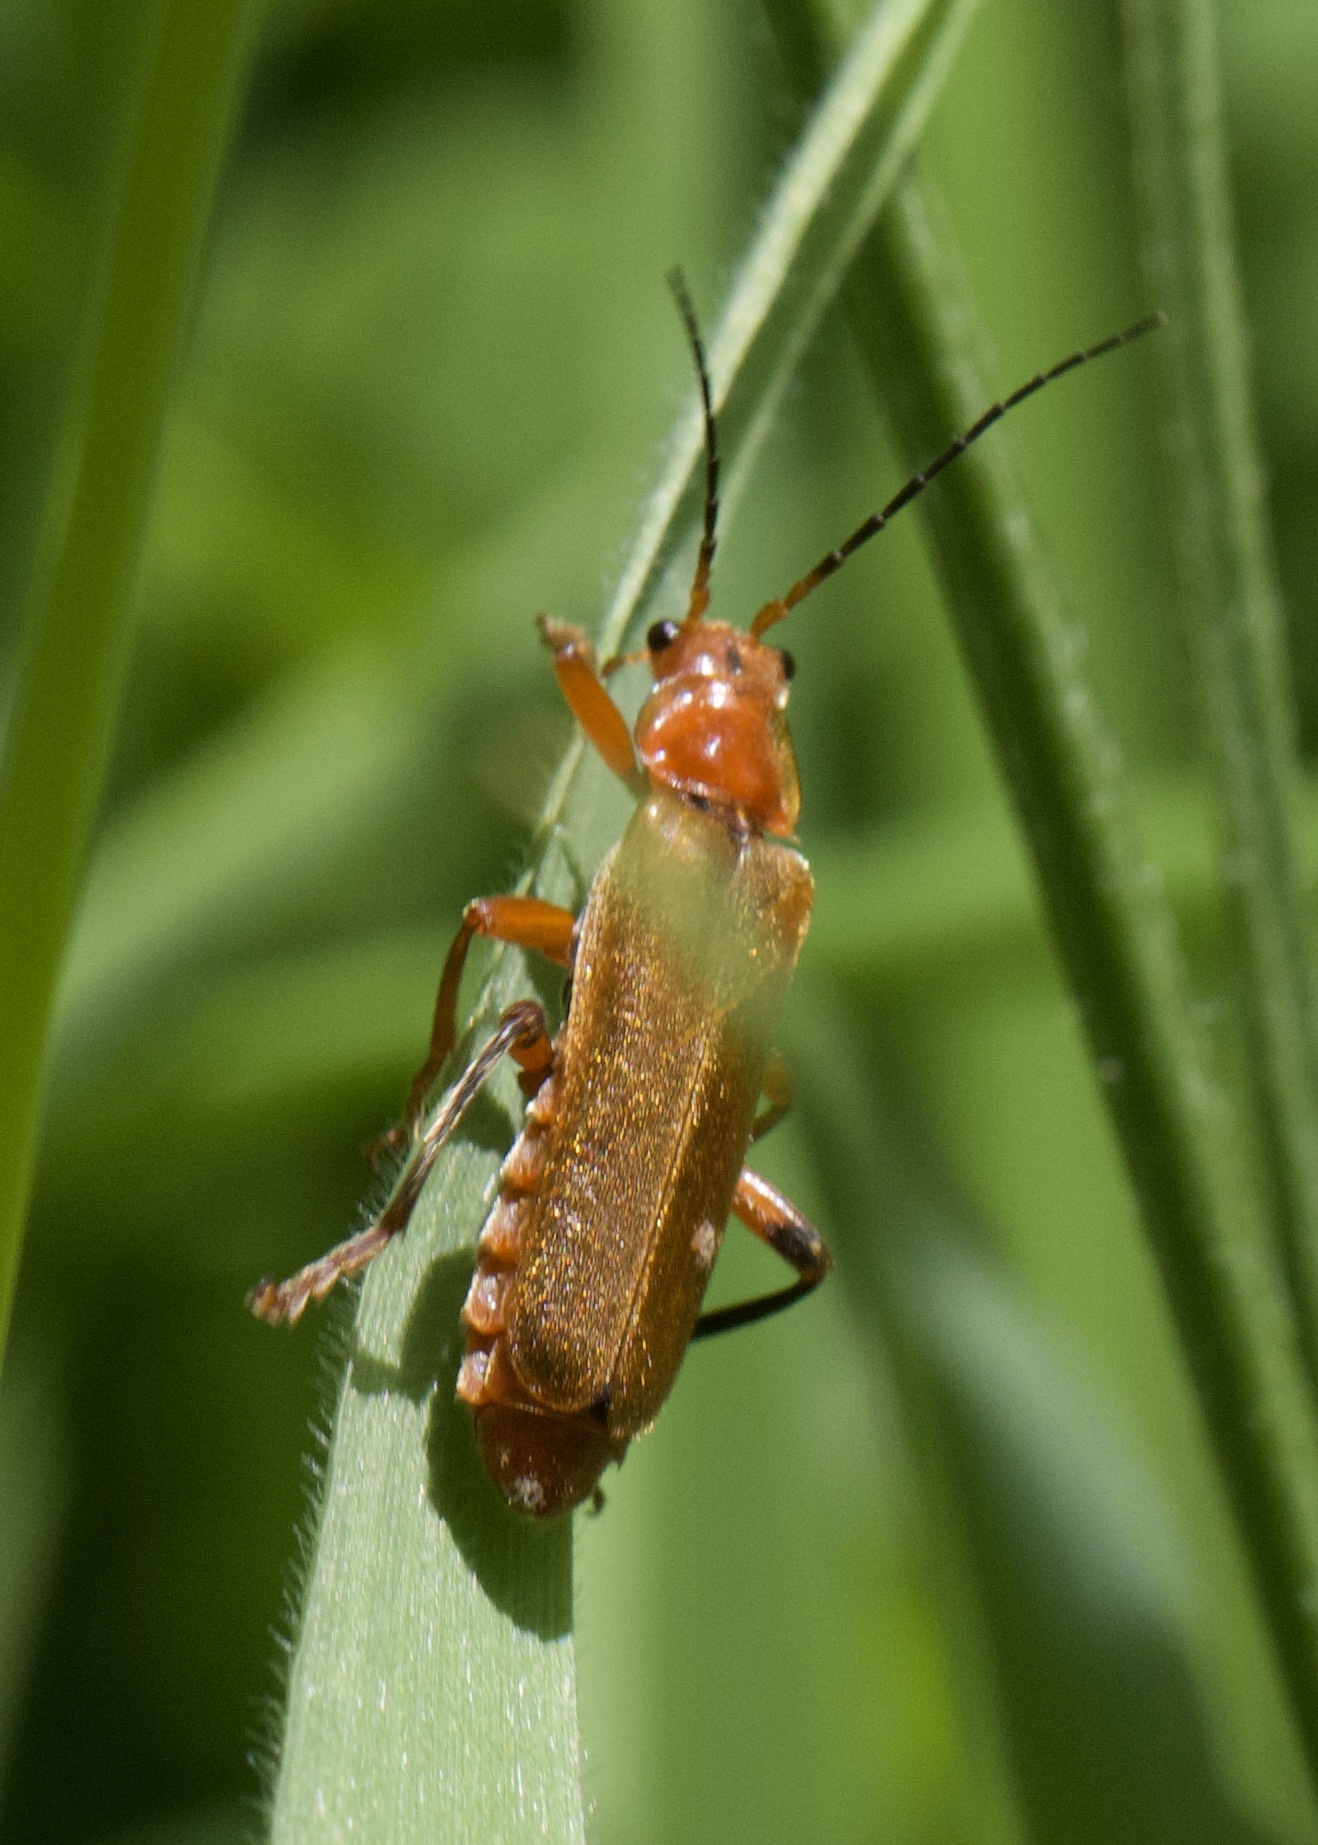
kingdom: Animalia
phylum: Arthropoda
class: Insecta
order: Coleoptera
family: Cantharidae
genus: Cantharis
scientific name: Cantharis livida
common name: Livid soldier beetle
